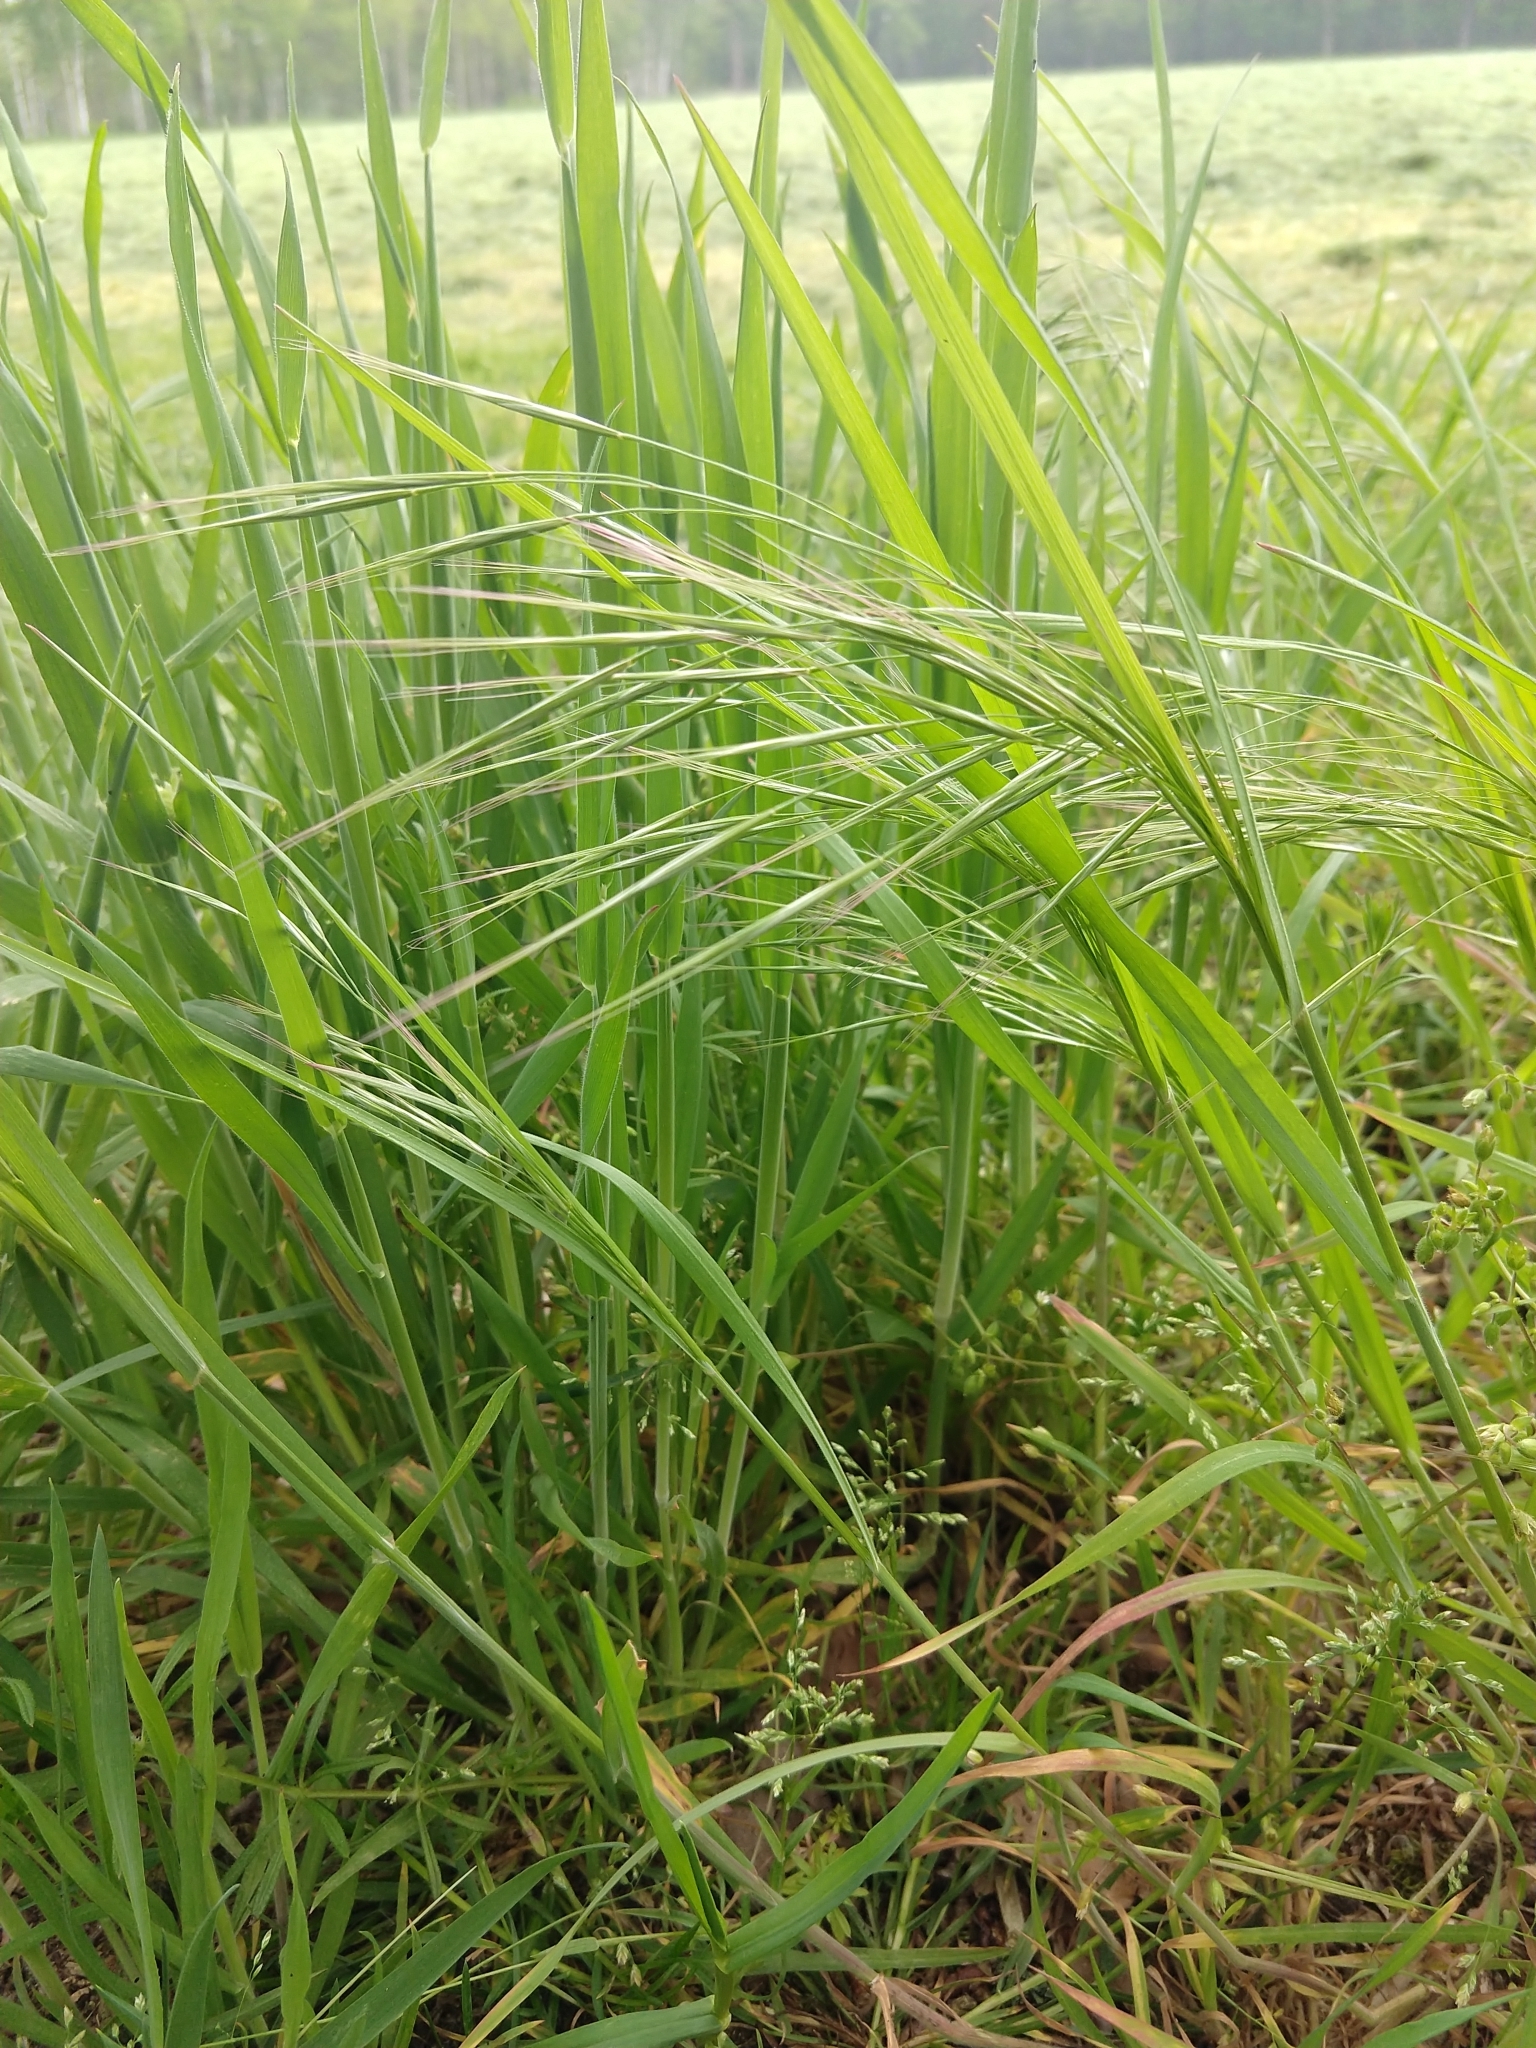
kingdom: Plantae
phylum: Tracheophyta
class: Liliopsida
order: Poales
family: Poaceae
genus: Bromus
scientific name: Bromus sterilis
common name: Poverty brome
